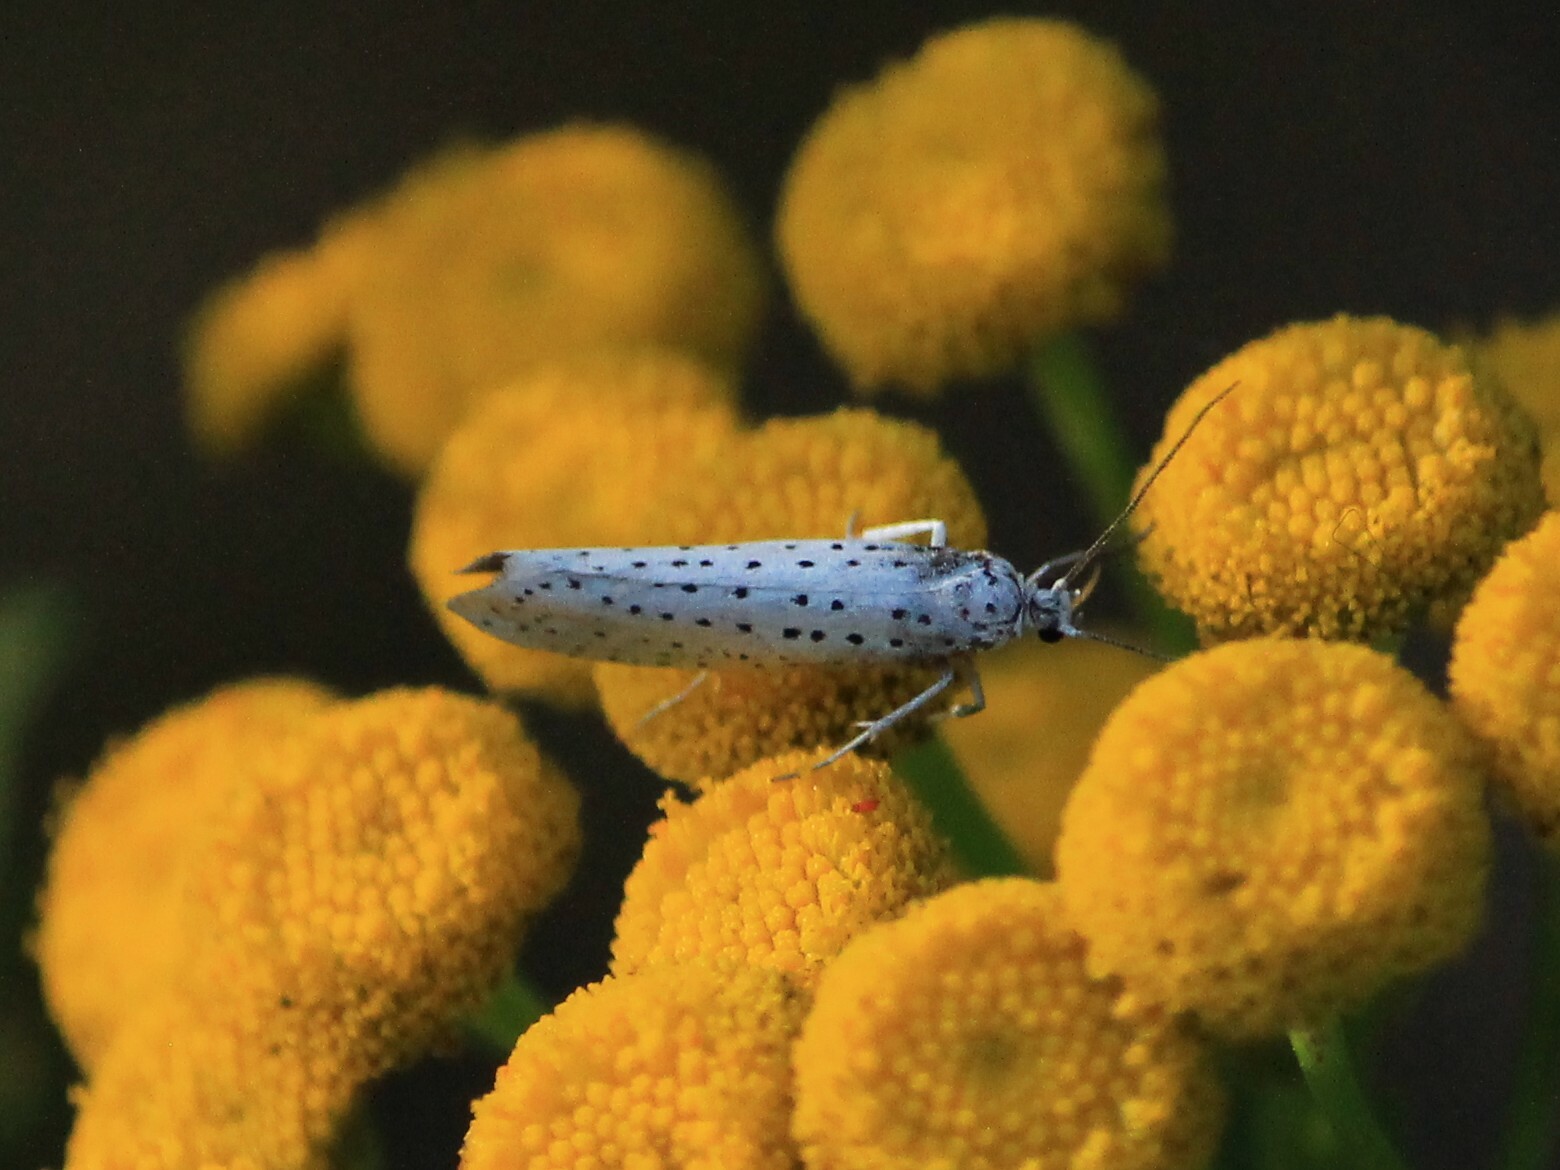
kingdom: Animalia
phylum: Arthropoda
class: Insecta
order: Lepidoptera
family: Yponomeutidae
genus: Yponomeuta
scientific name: Yponomeuta evonymella
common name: Bird-cherry ermine
